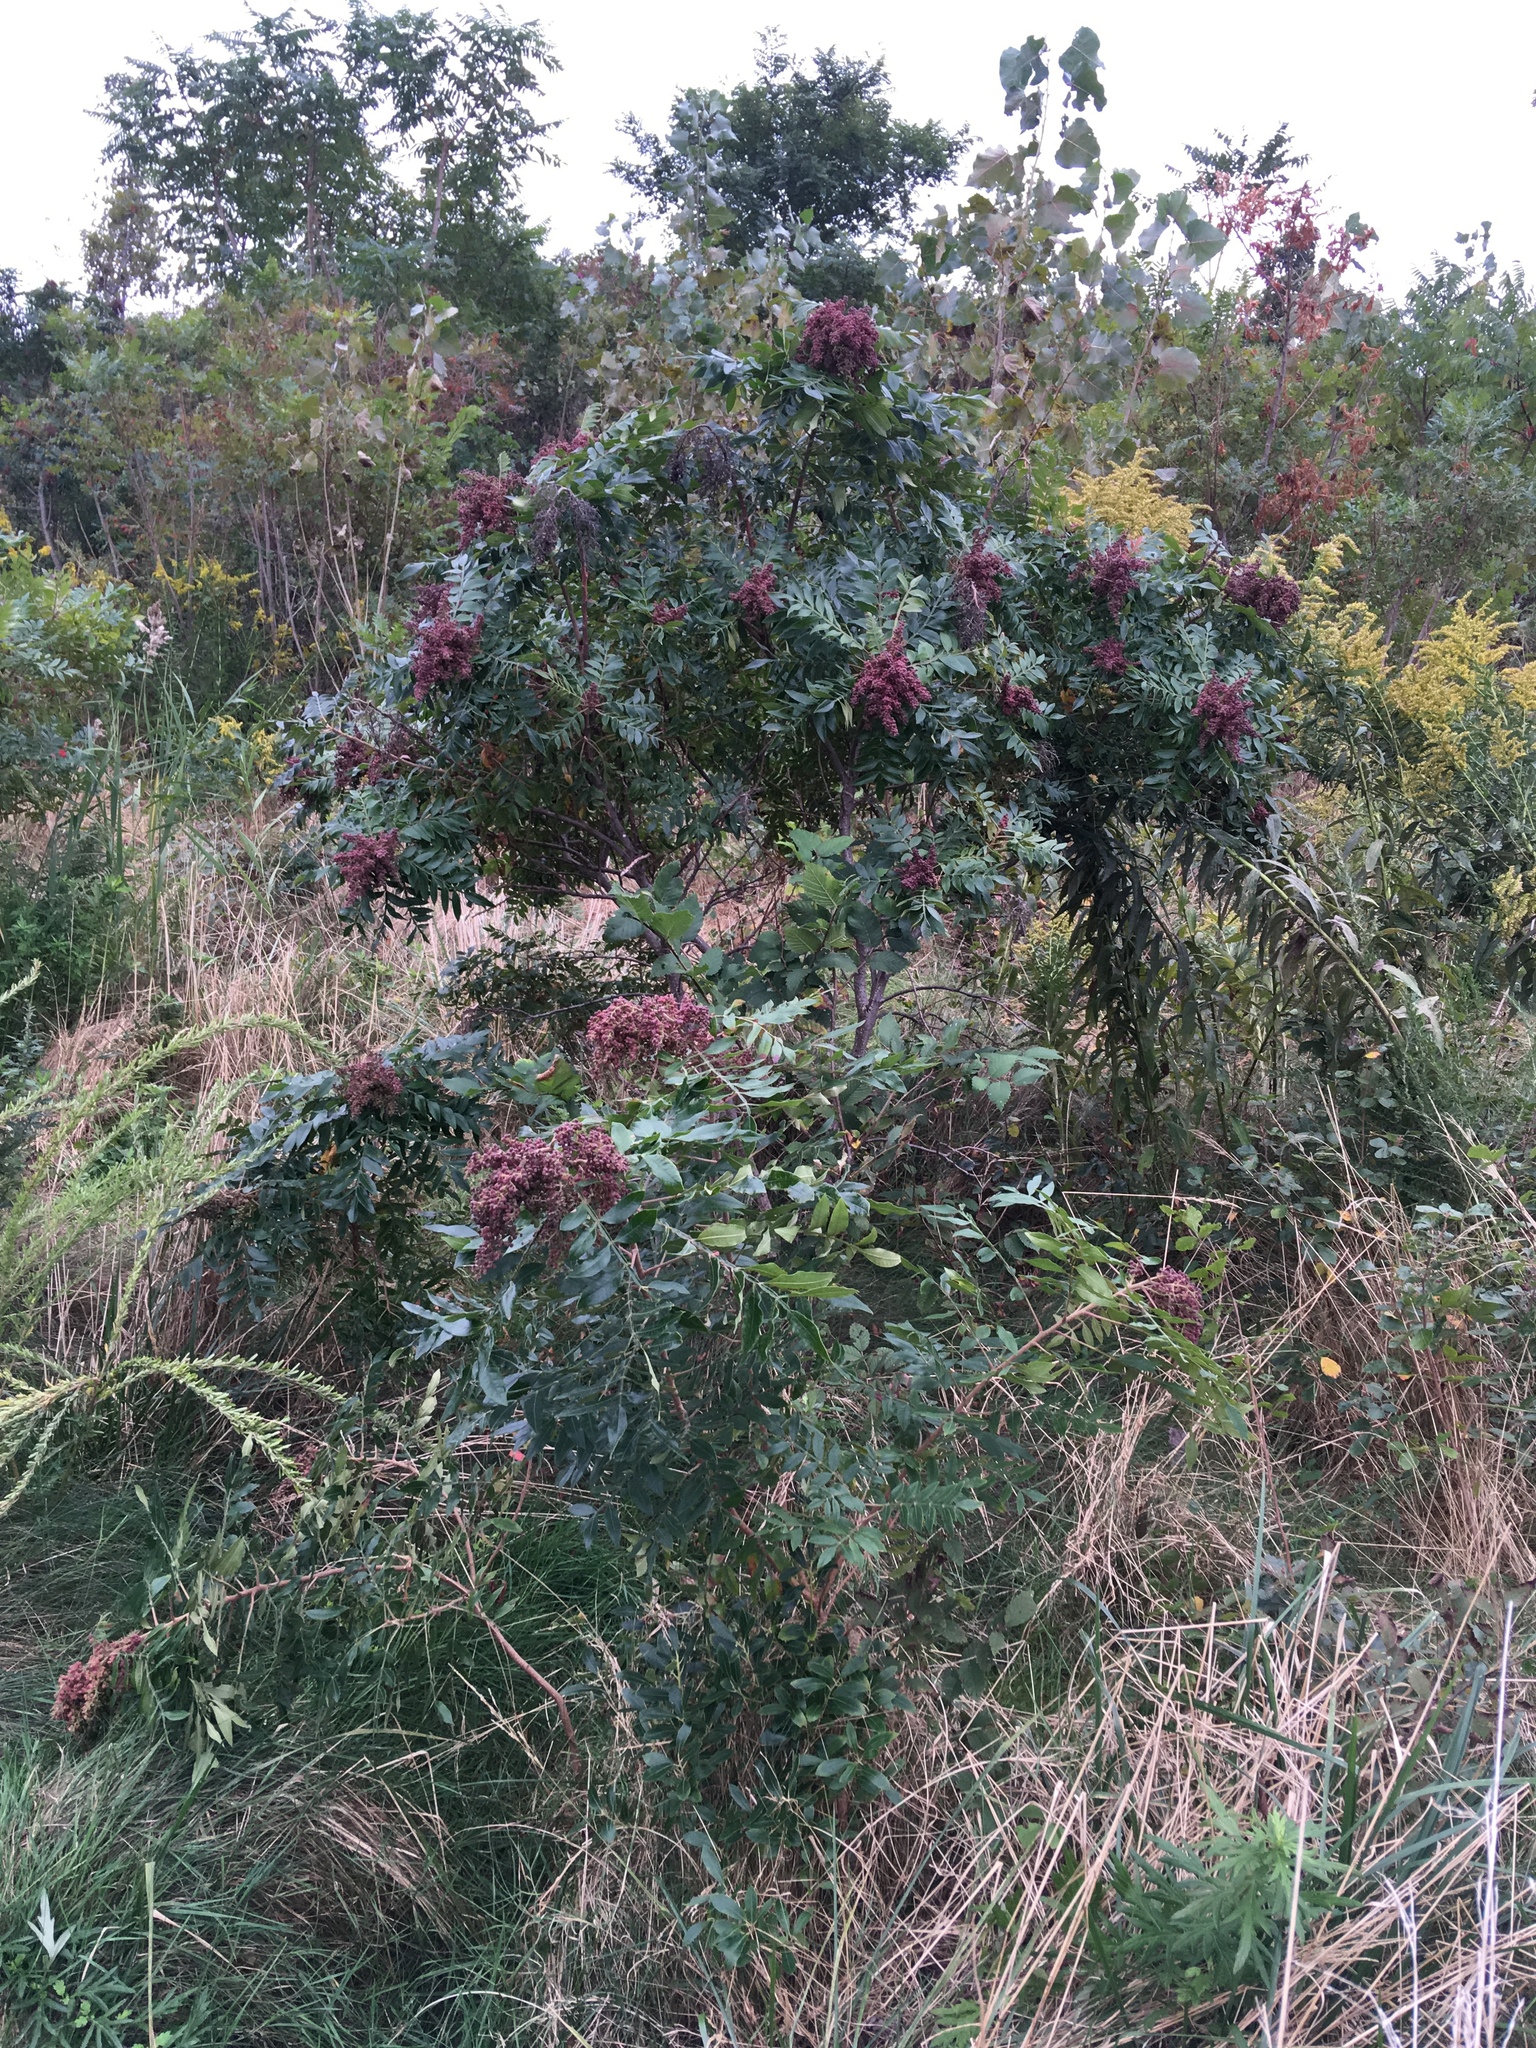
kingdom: Plantae
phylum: Tracheophyta
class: Magnoliopsida
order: Sapindales
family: Anacardiaceae
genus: Rhus
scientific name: Rhus copallina
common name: Shining sumac
